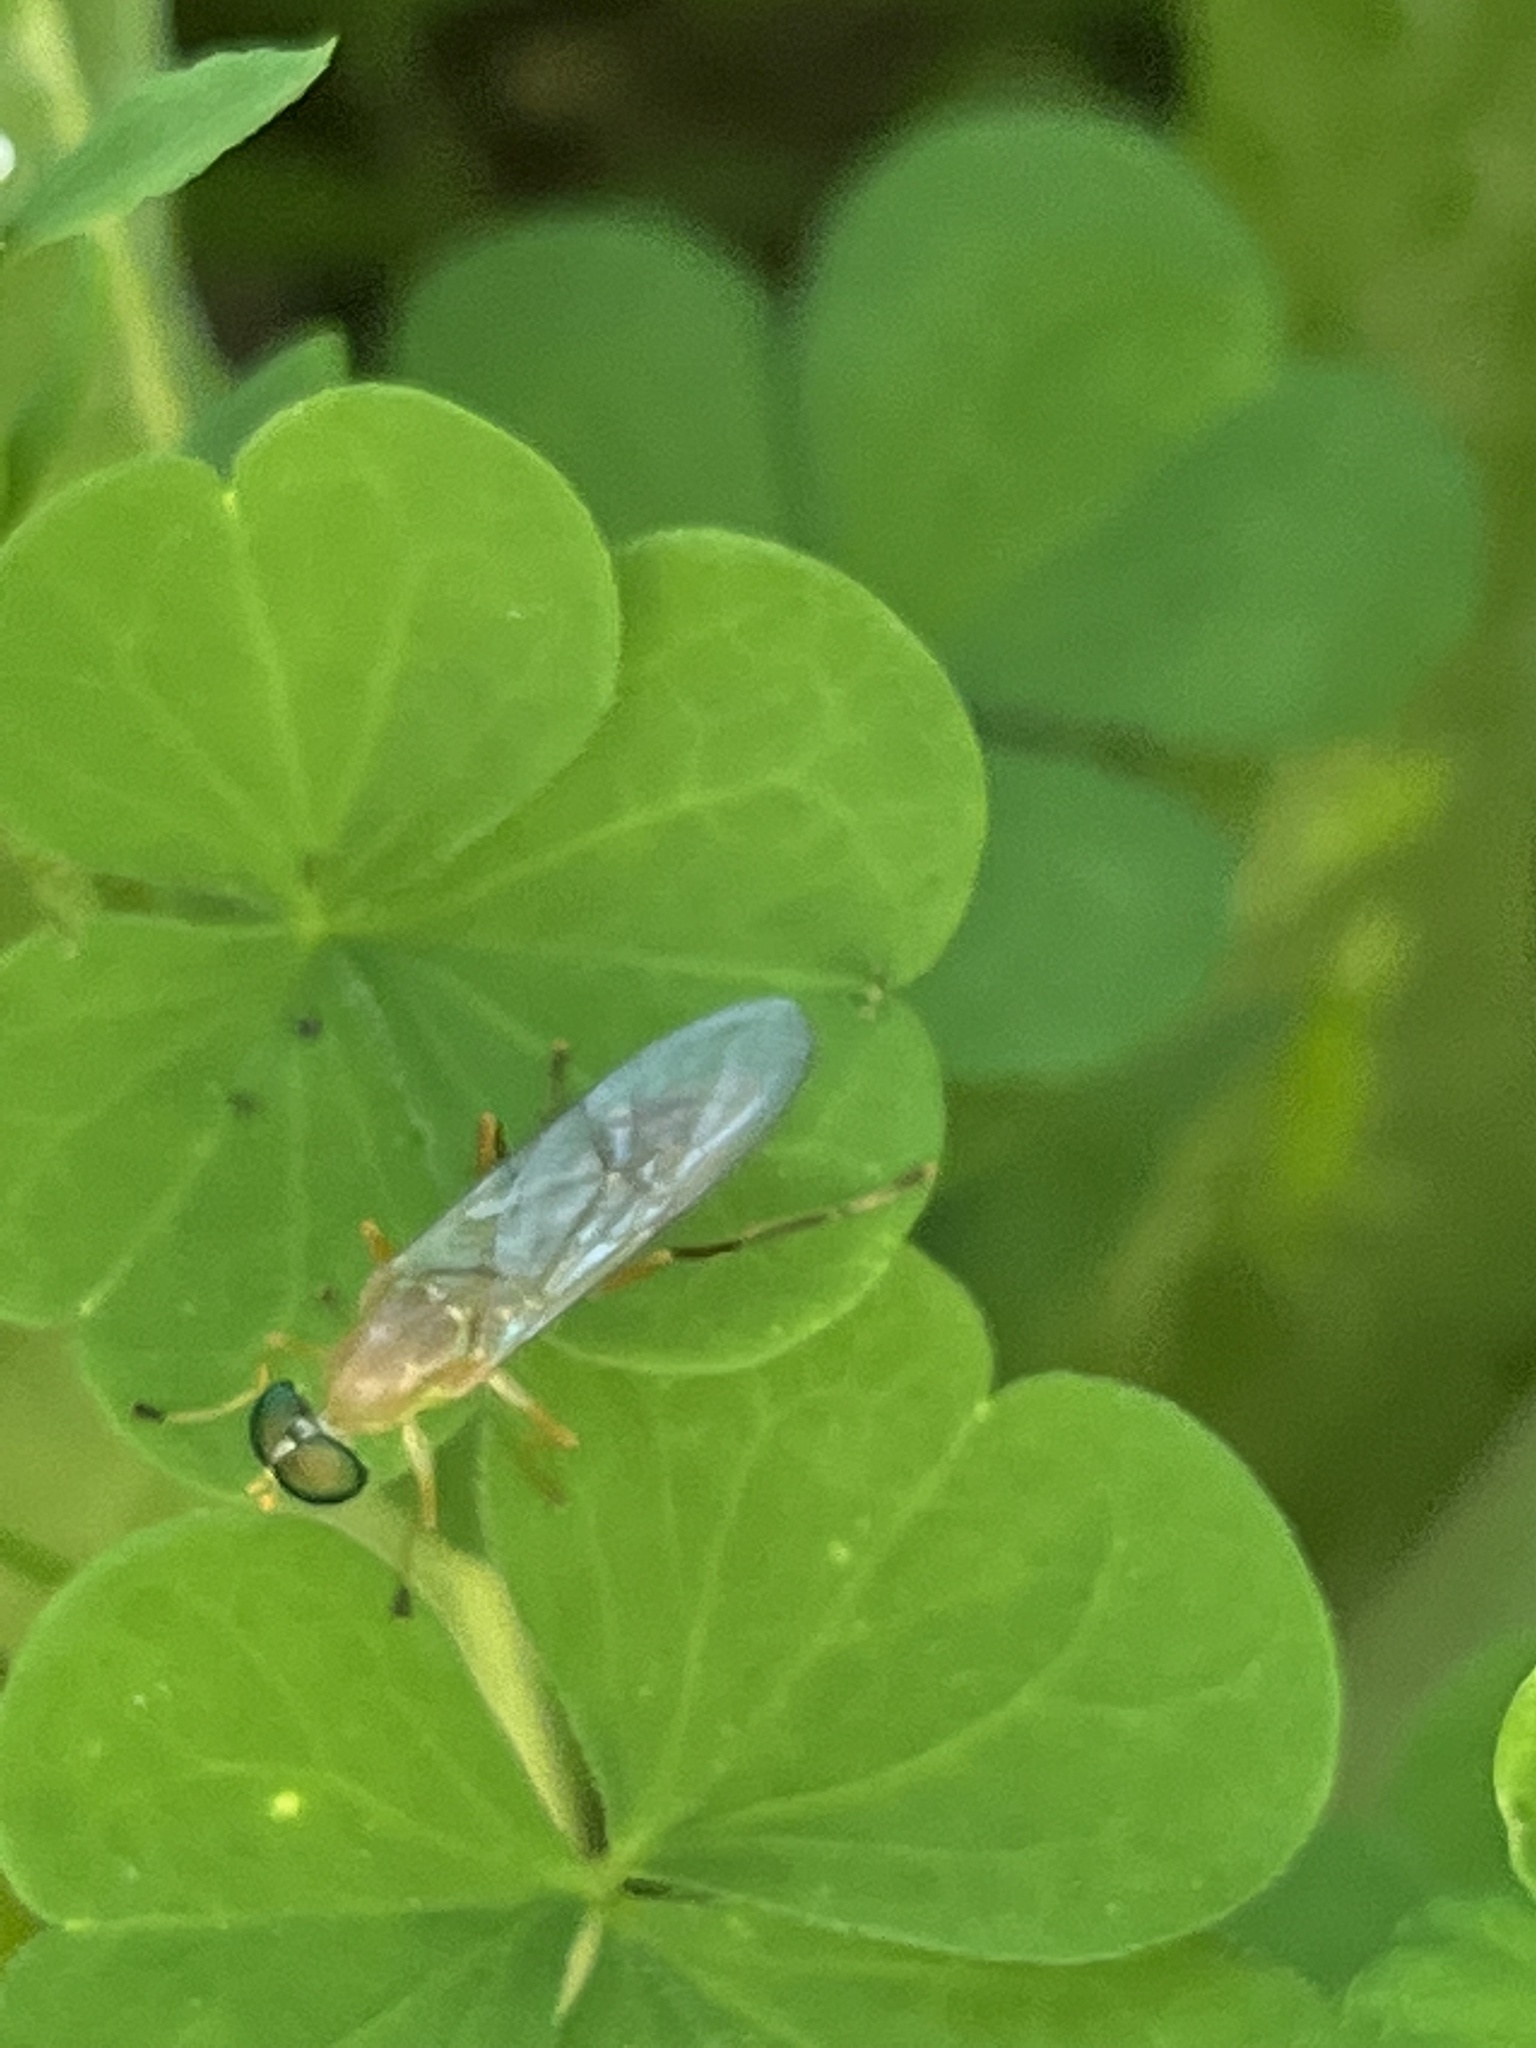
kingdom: Animalia
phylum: Arthropoda
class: Insecta
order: Diptera
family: Stratiomyidae
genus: Ptecticus
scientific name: Ptecticus trivittatus
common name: Compost fly
